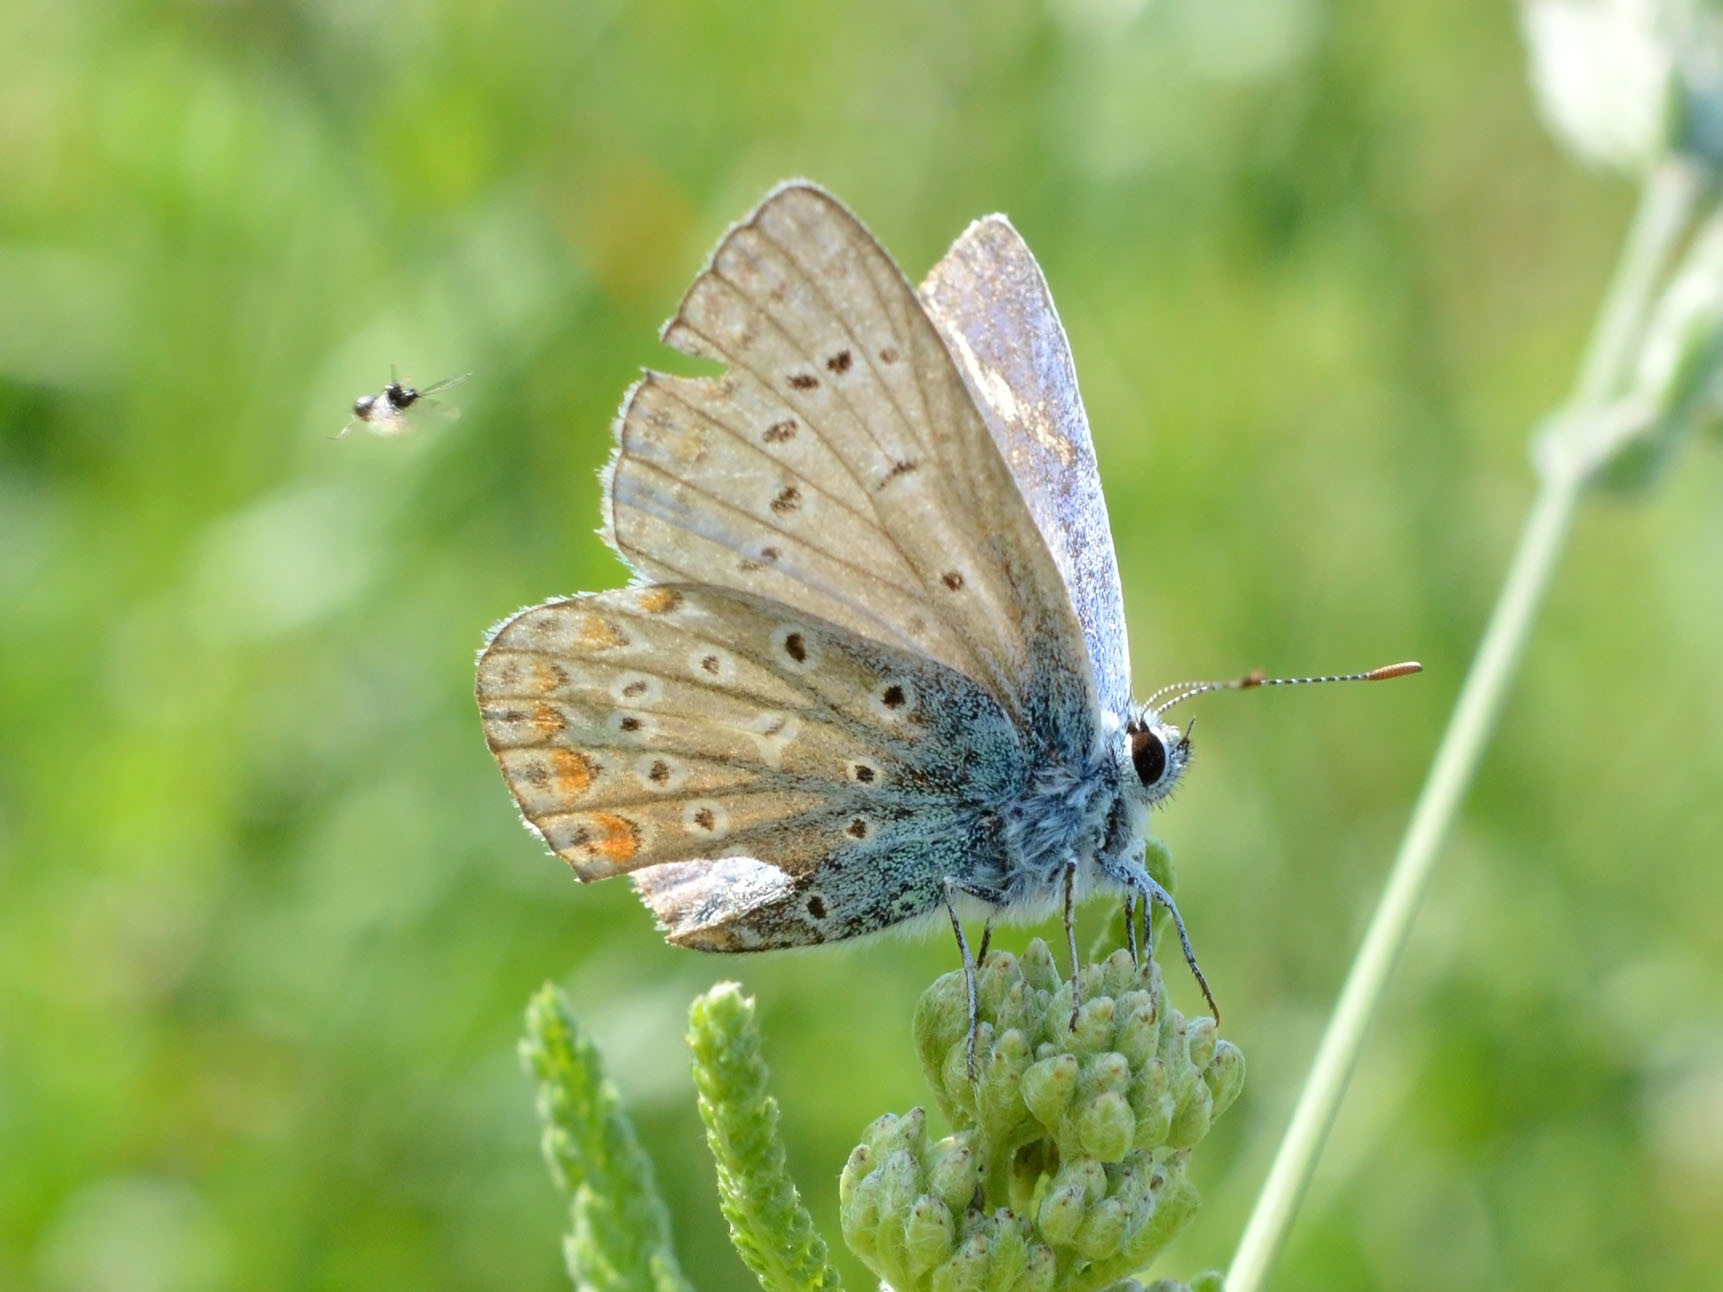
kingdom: Animalia
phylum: Arthropoda
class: Insecta
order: Lepidoptera
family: Lycaenidae
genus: Polyommatus
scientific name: Polyommatus icarus
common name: Common blue
